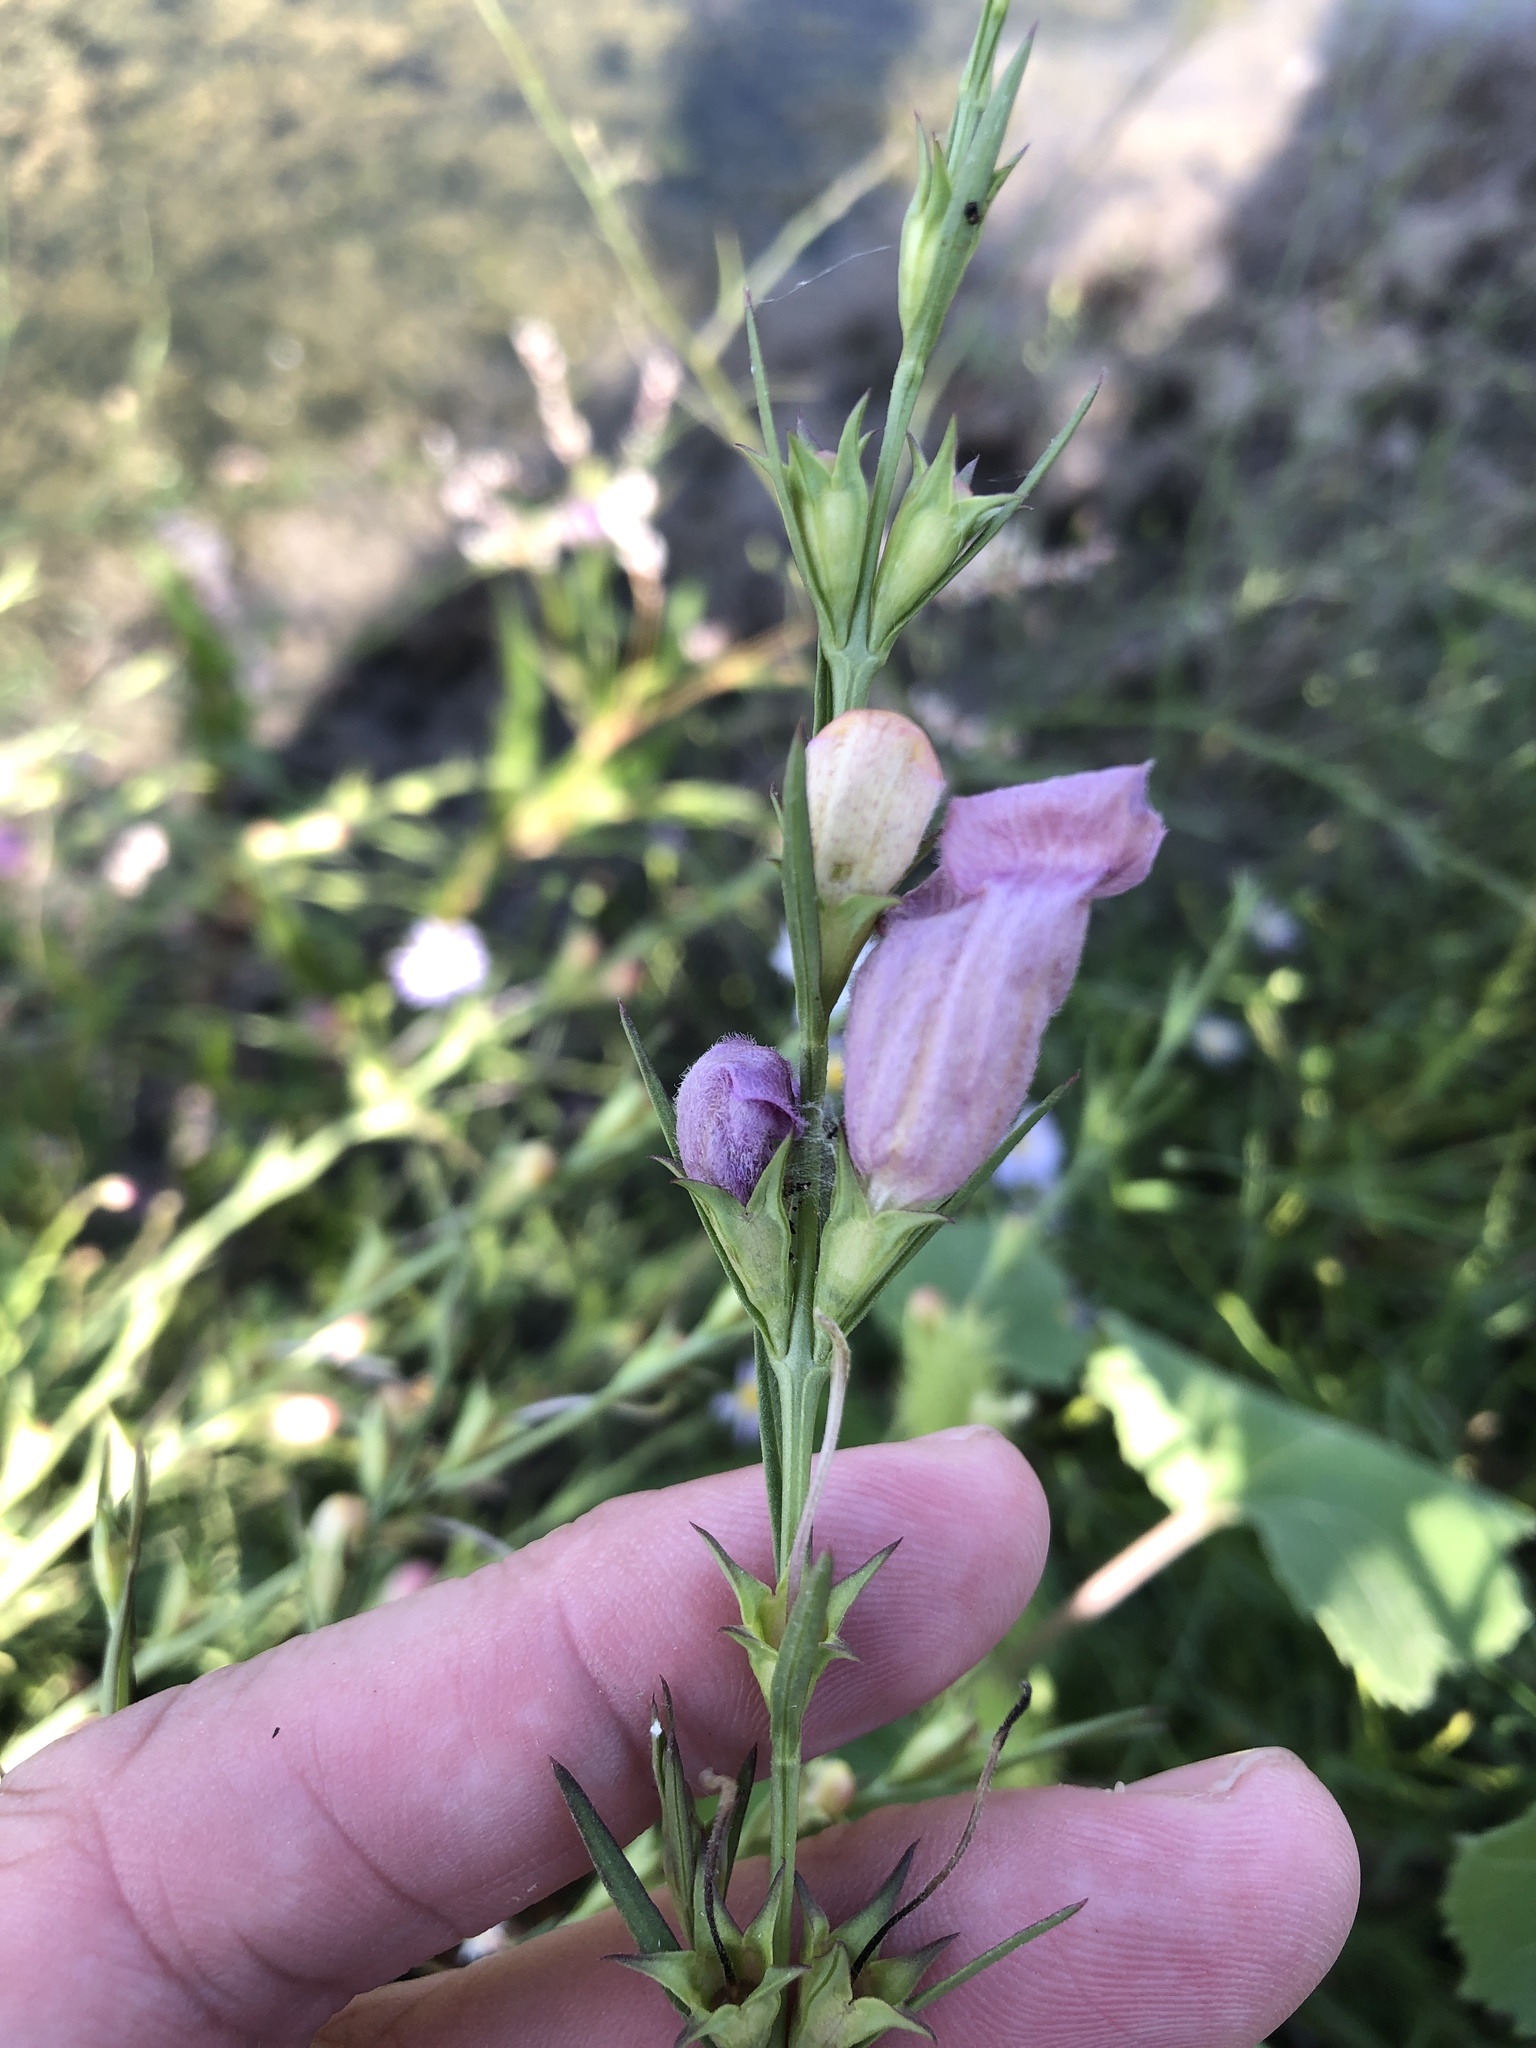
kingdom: Plantae
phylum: Tracheophyta
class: Magnoliopsida
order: Lamiales
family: Orobanchaceae
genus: Agalinis
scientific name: Agalinis heterophylla
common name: Prairie agalinis
